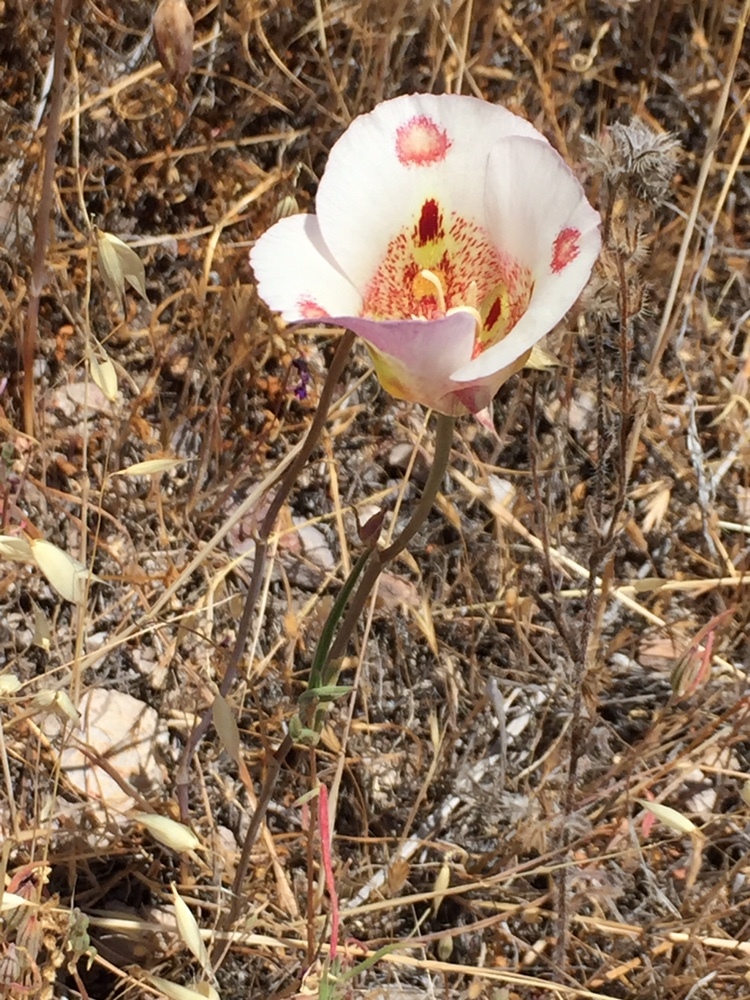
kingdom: Plantae
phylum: Tracheophyta
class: Liliopsida
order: Liliales
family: Liliaceae
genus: Calochortus
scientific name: Calochortus venustus
